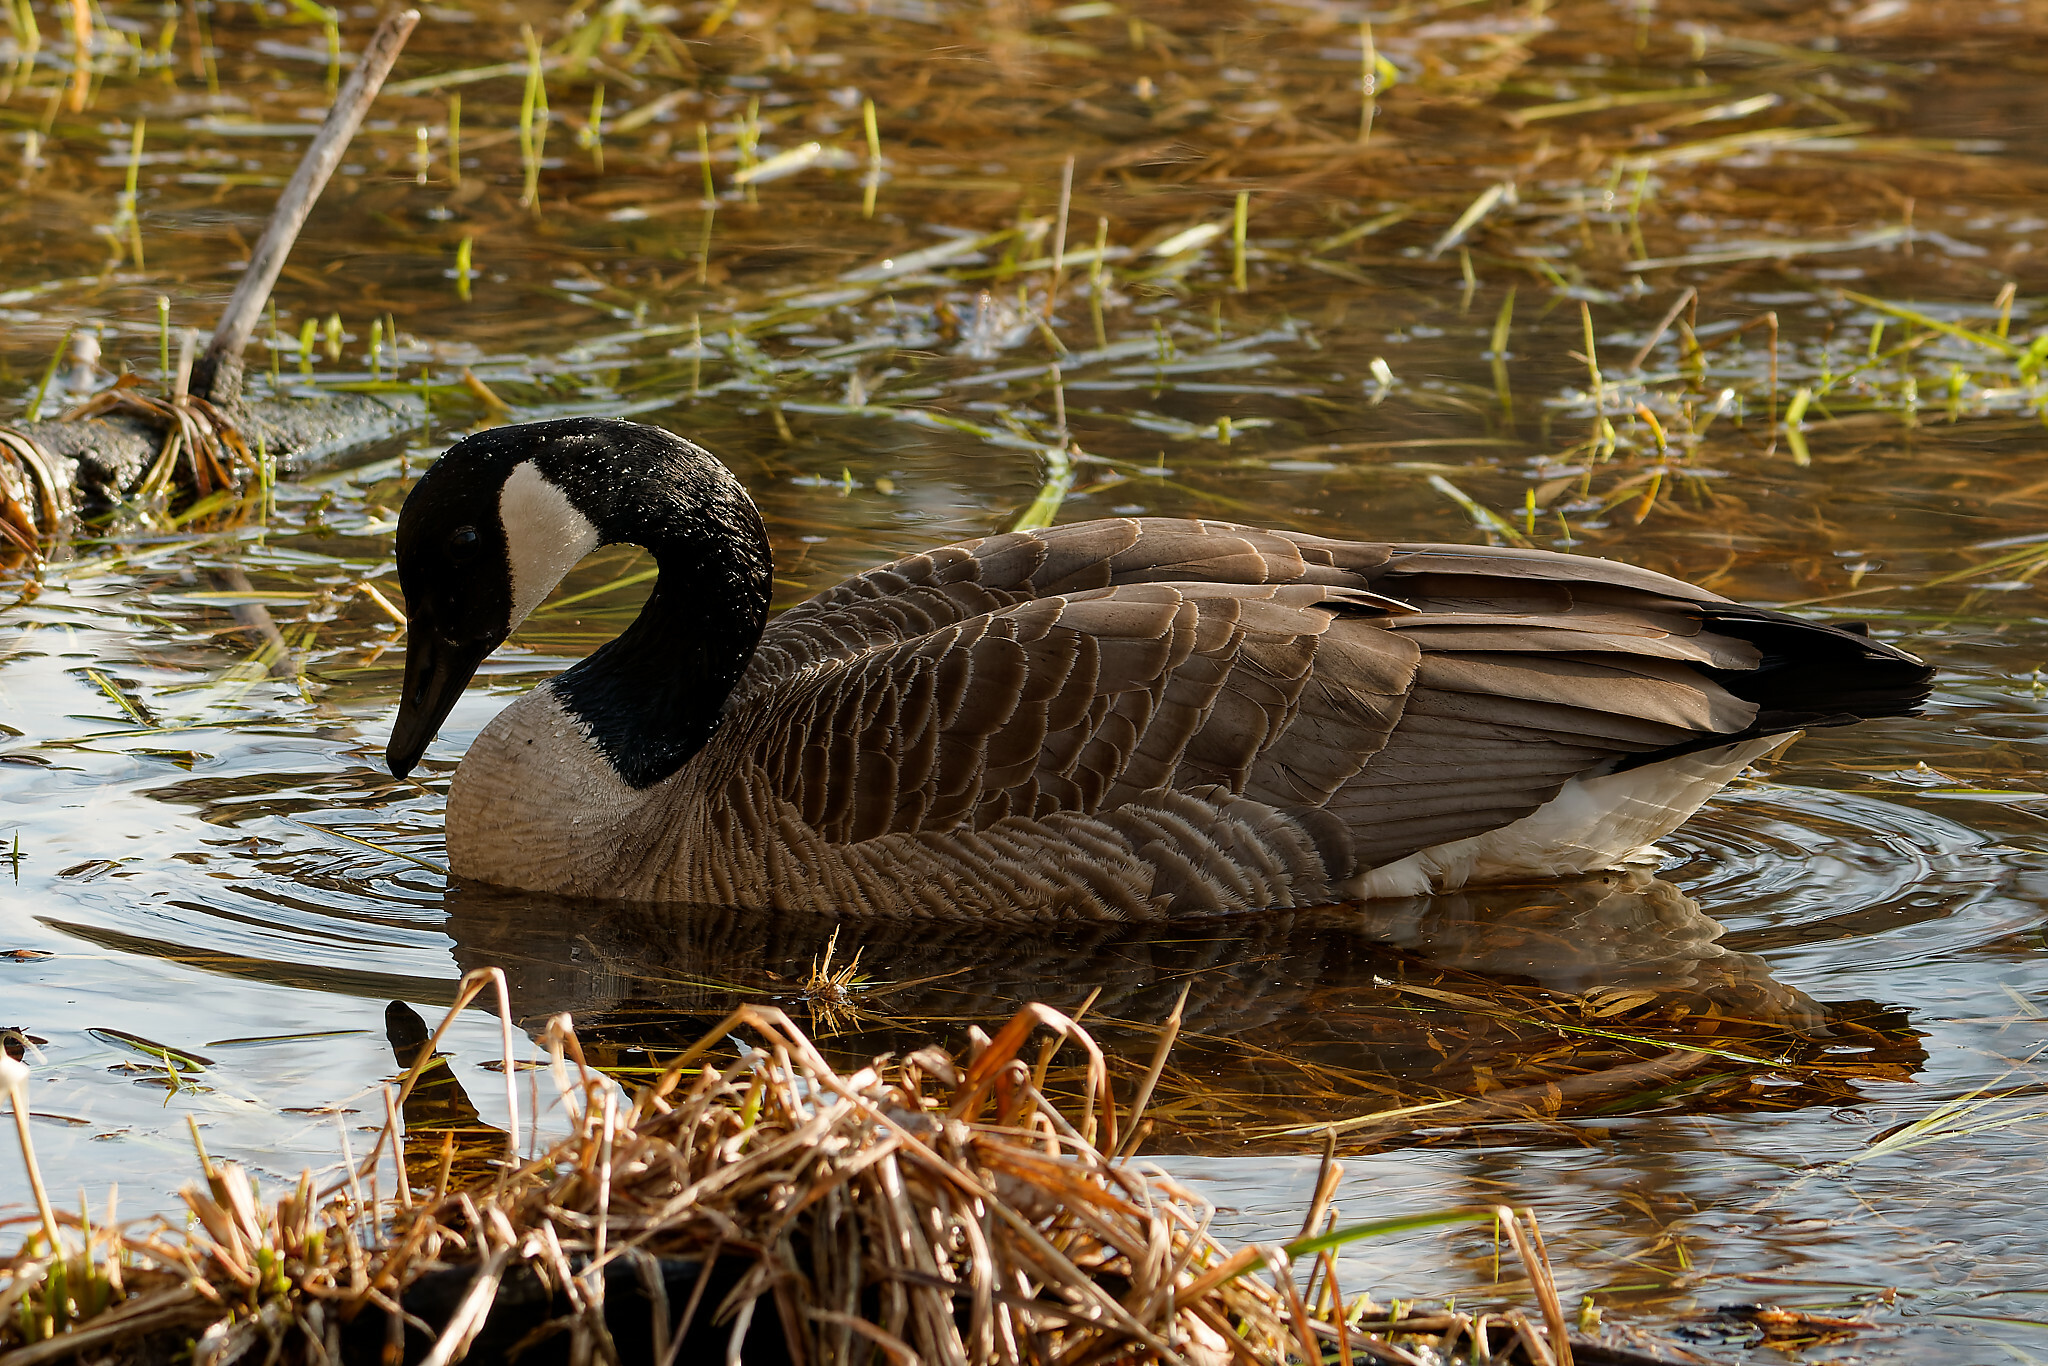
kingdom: Animalia
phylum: Chordata
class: Aves
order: Anseriformes
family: Anatidae
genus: Branta
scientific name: Branta canadensis
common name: Canada goose
